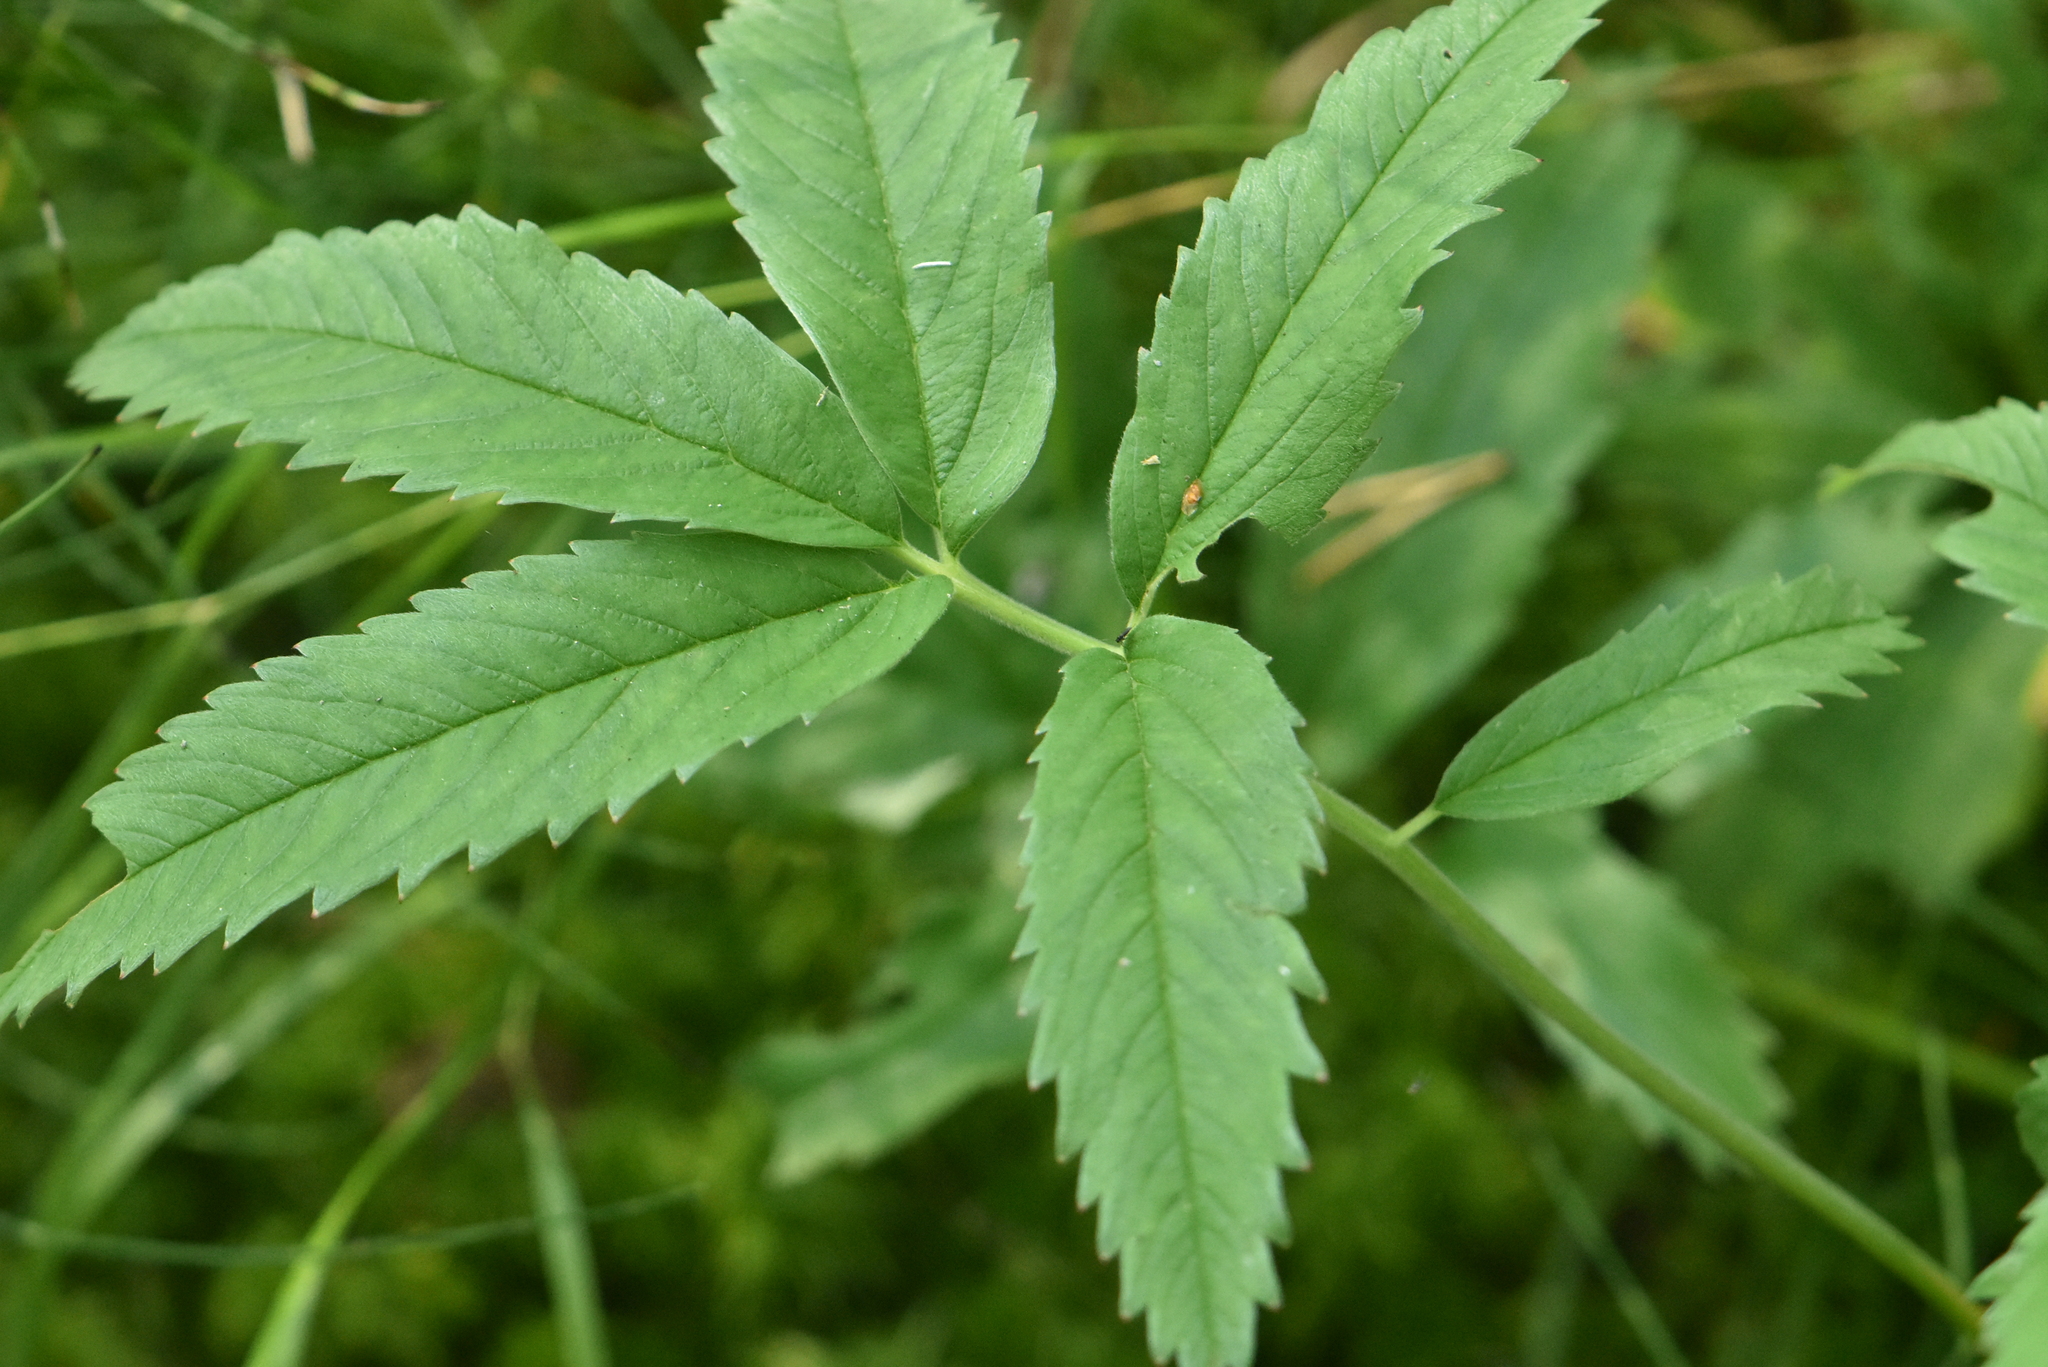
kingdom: Plantae
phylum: Tracheophyta
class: Magnoliopsida
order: Rosales
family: Rosaceae
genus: Comarum
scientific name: Comarum palustre
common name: Marsh cinquefoil
